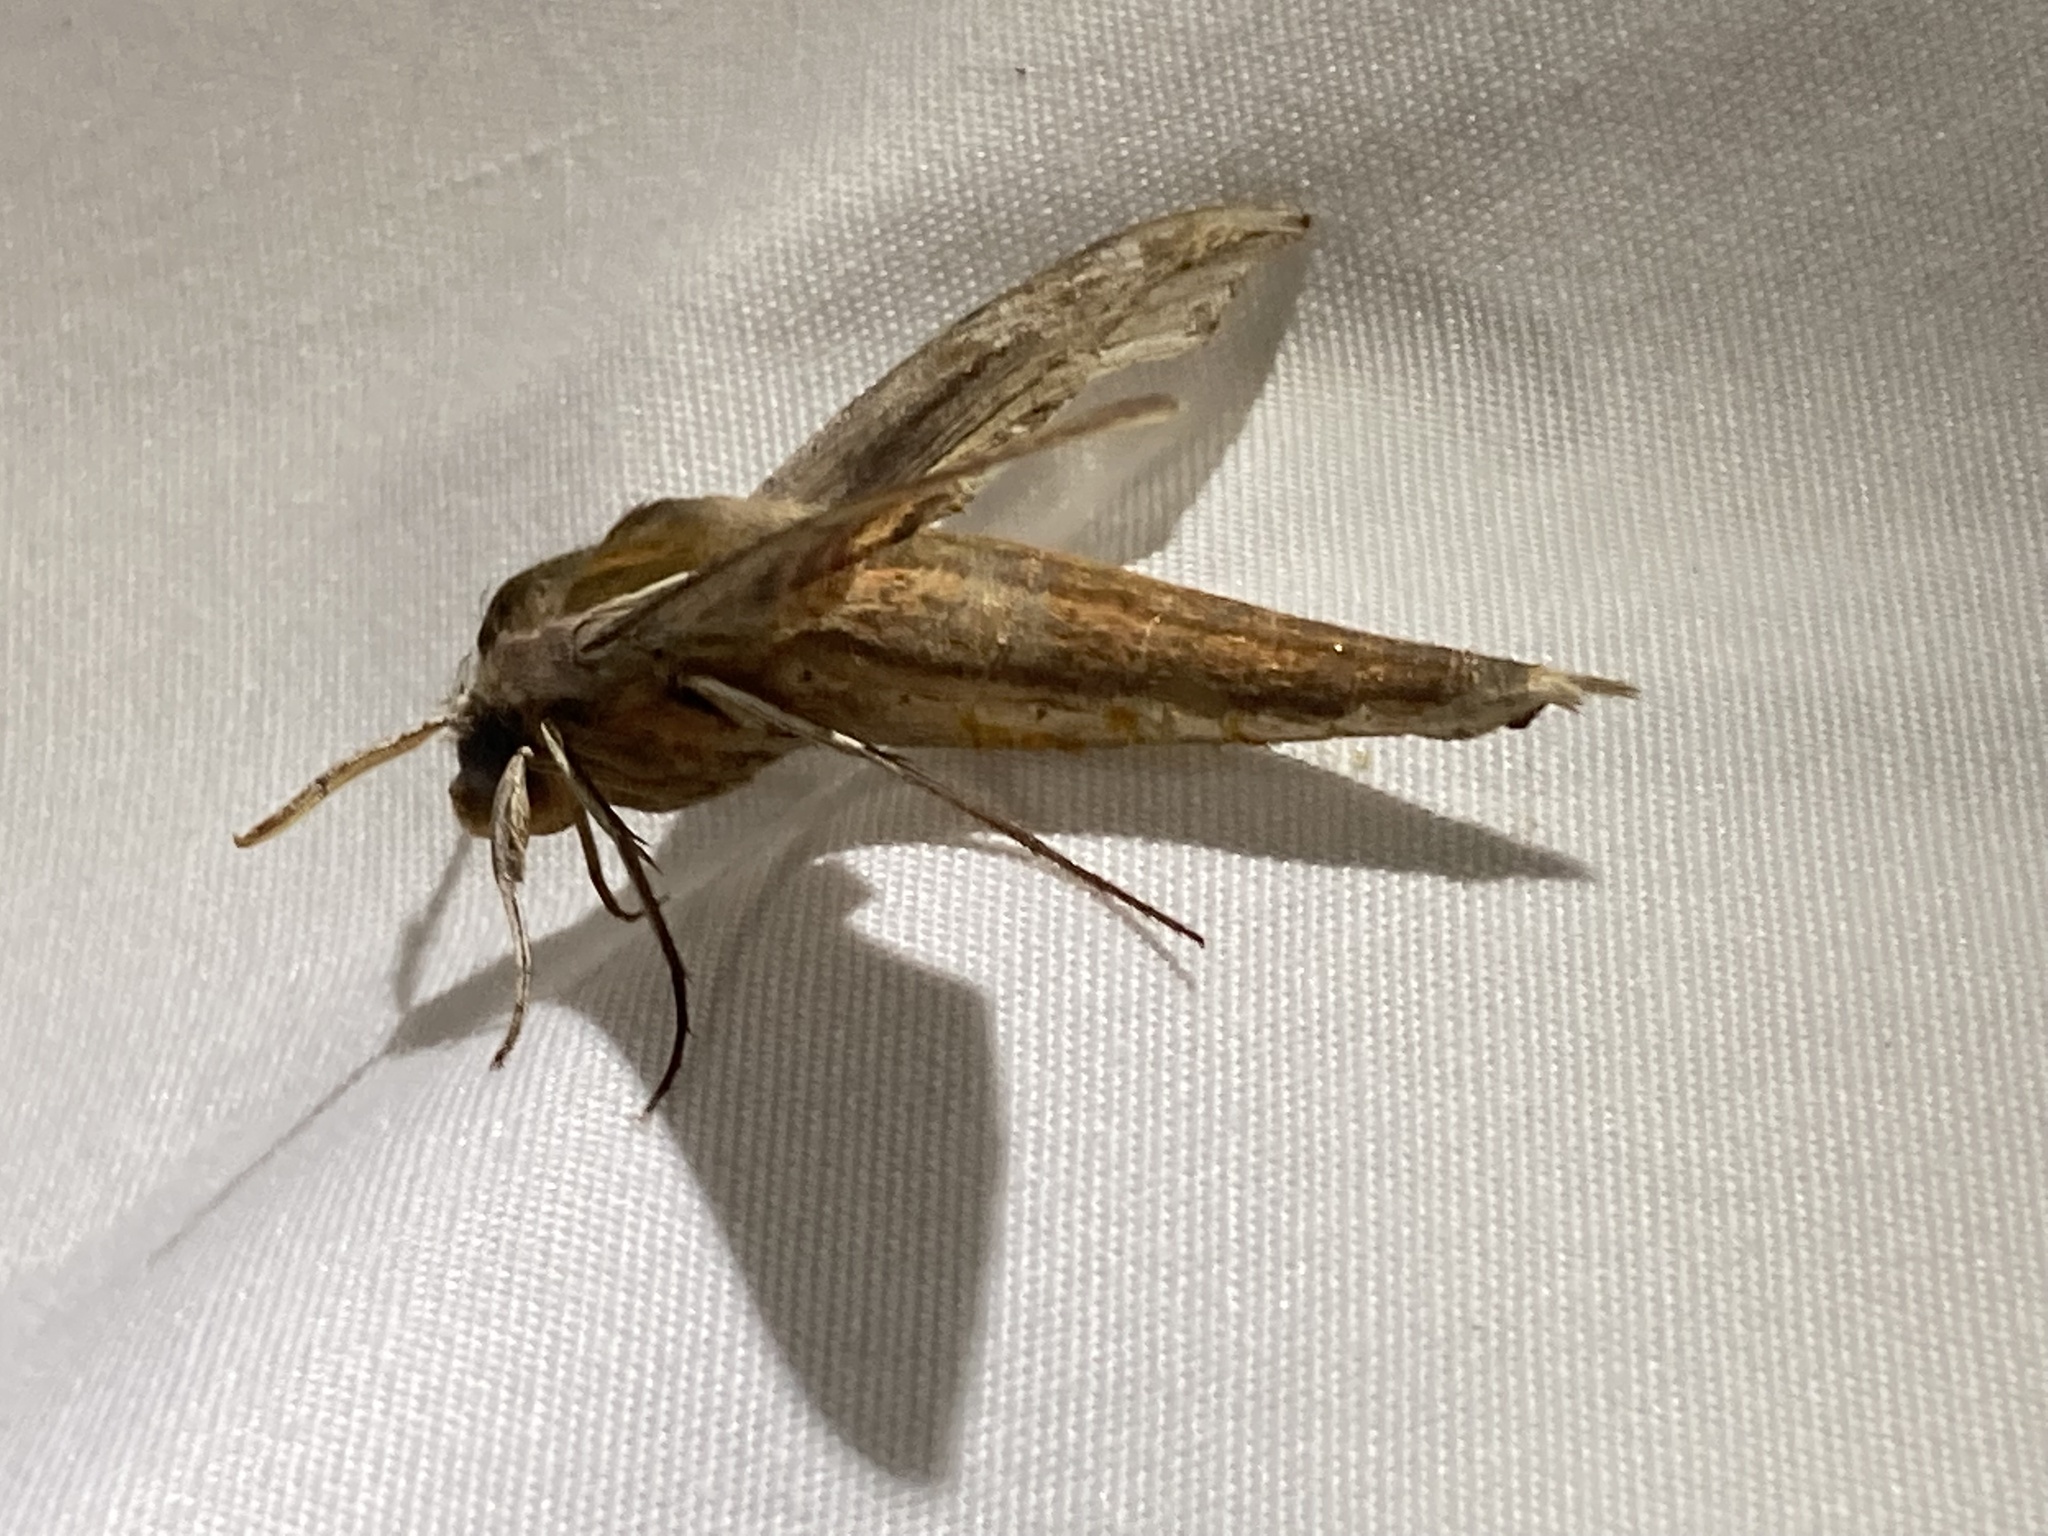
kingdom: Animalia
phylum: Arthropoda
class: Insecta
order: Lepidoptera
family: Sphingidae
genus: Xylophanes
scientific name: Xylophanes tersa
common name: Tersa sphinx
